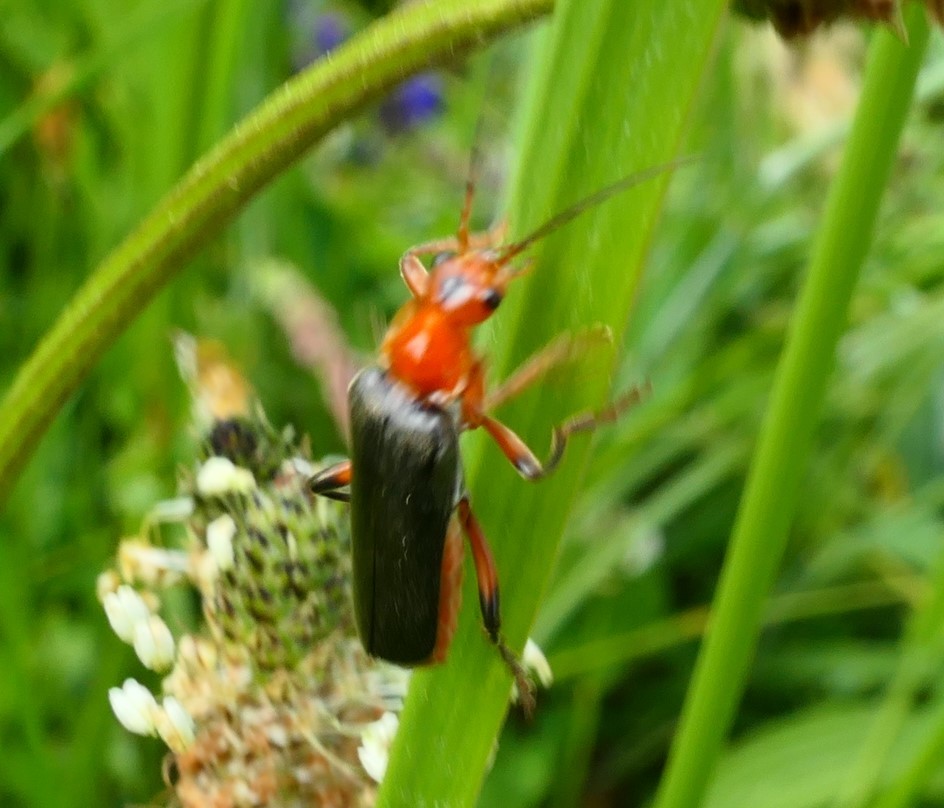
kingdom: Animalia
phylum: Arthropoda
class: Insecta
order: Coleoptera
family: Cantharidae
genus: Cantharis
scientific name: Cantharis livida
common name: Livid soldier beetle
